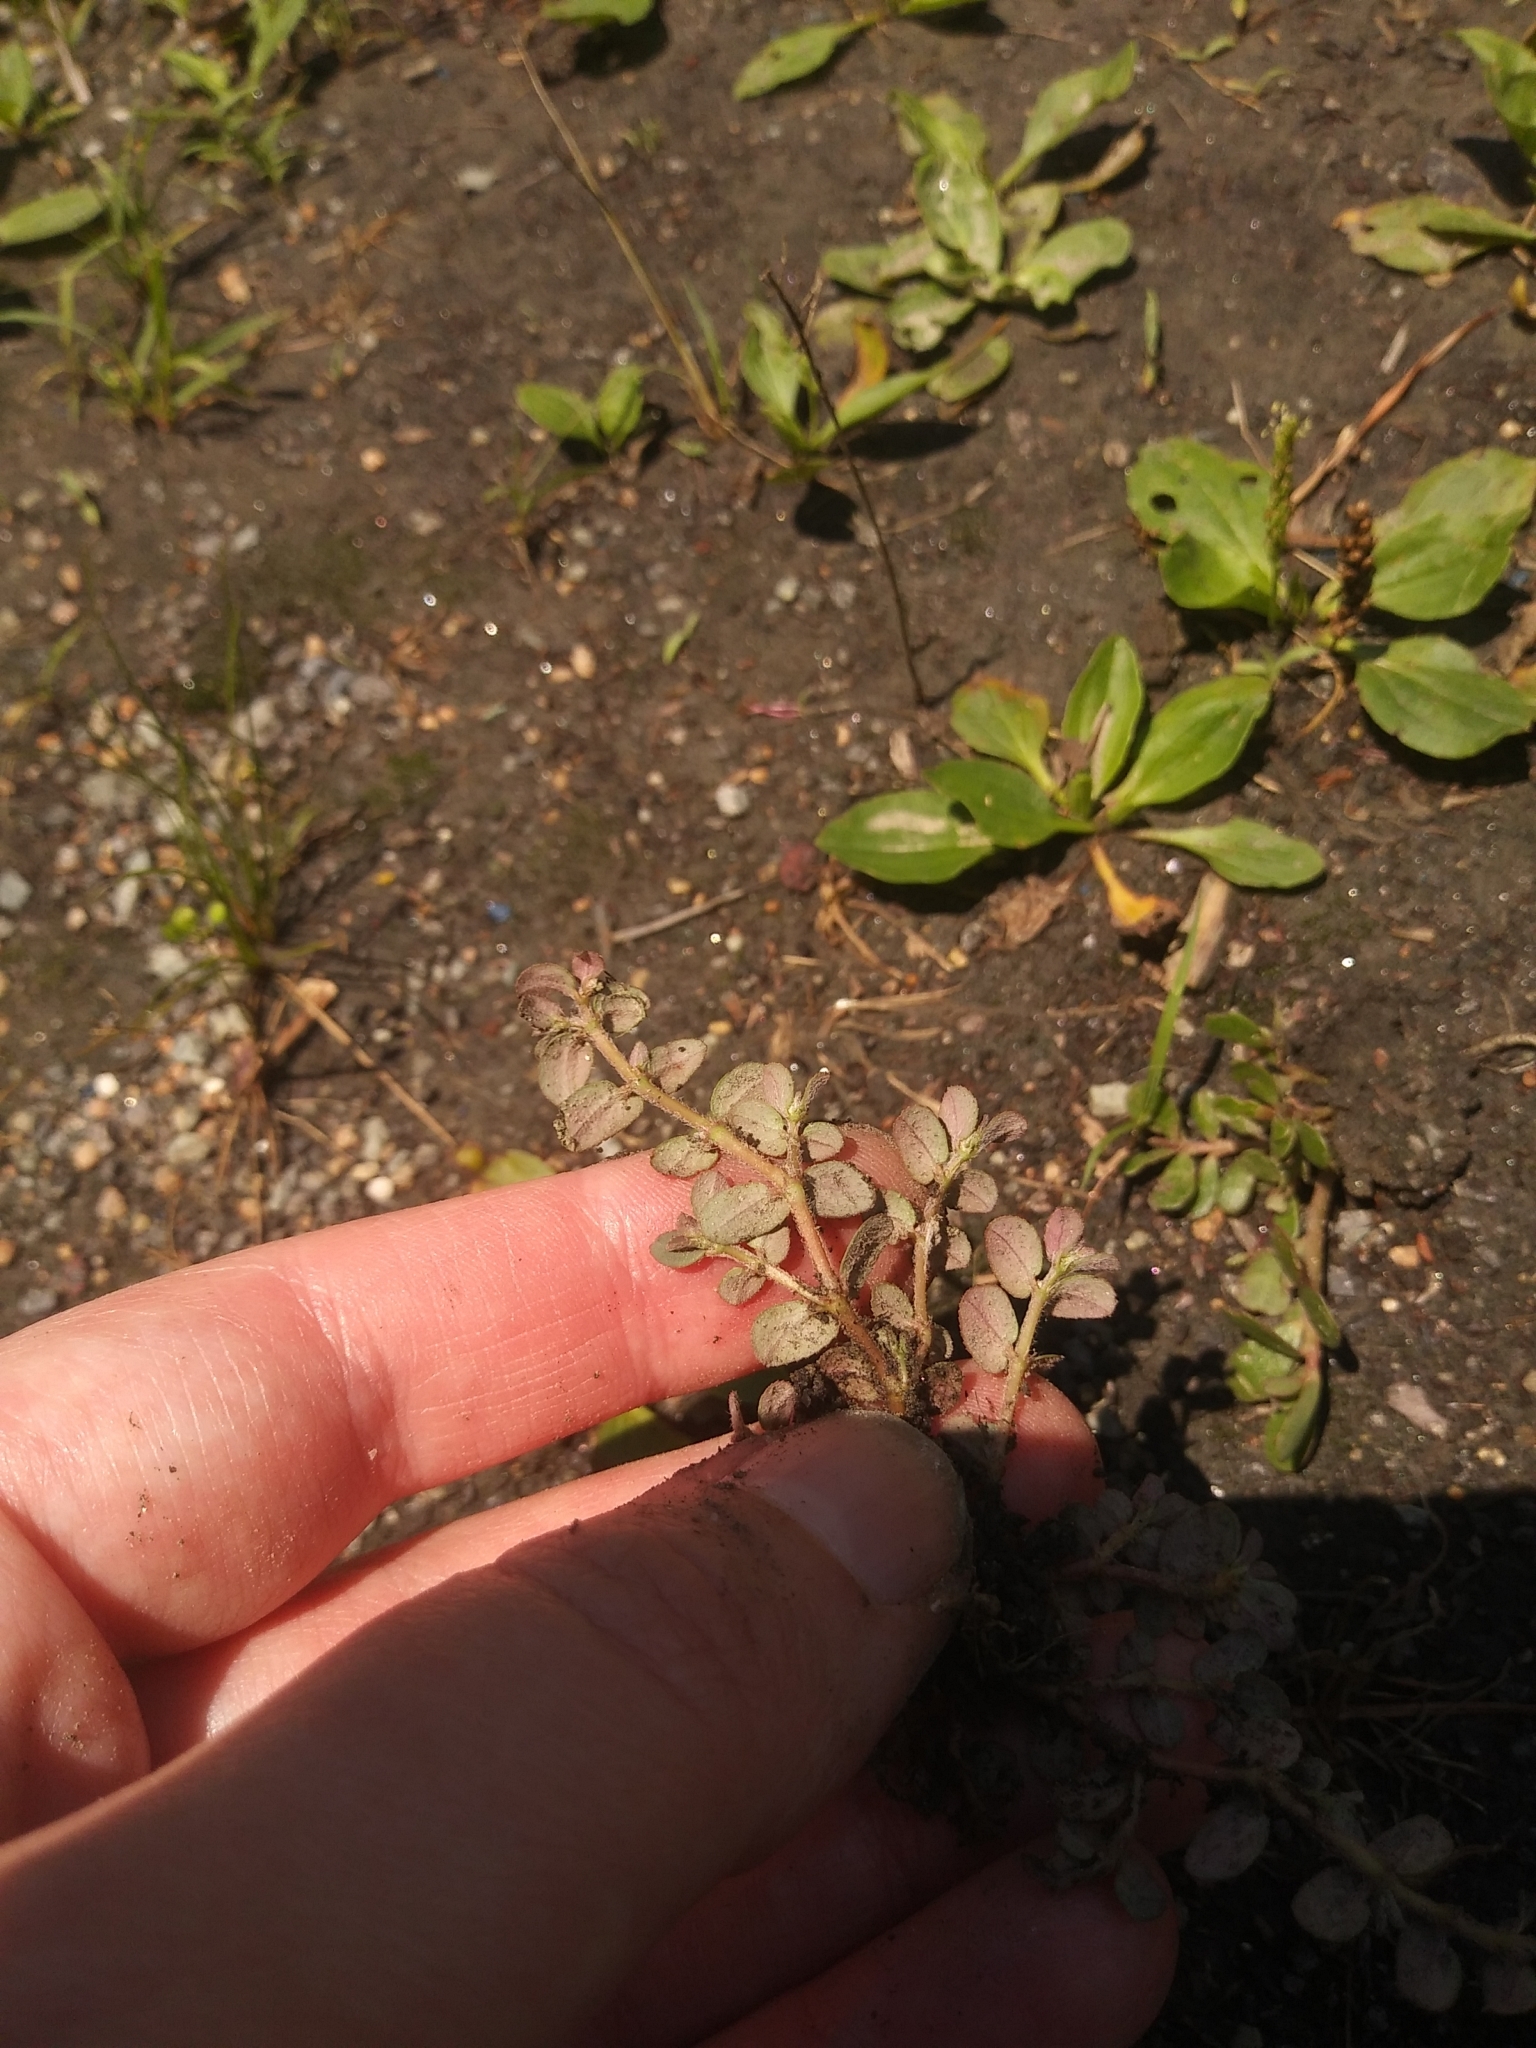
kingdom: Plantae
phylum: Tracheophyta
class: Magnoliopsida
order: Malpighiales
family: Euphorbiaceae
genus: Euphorbia
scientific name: Euphorbia maculata
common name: Spotted spurge
